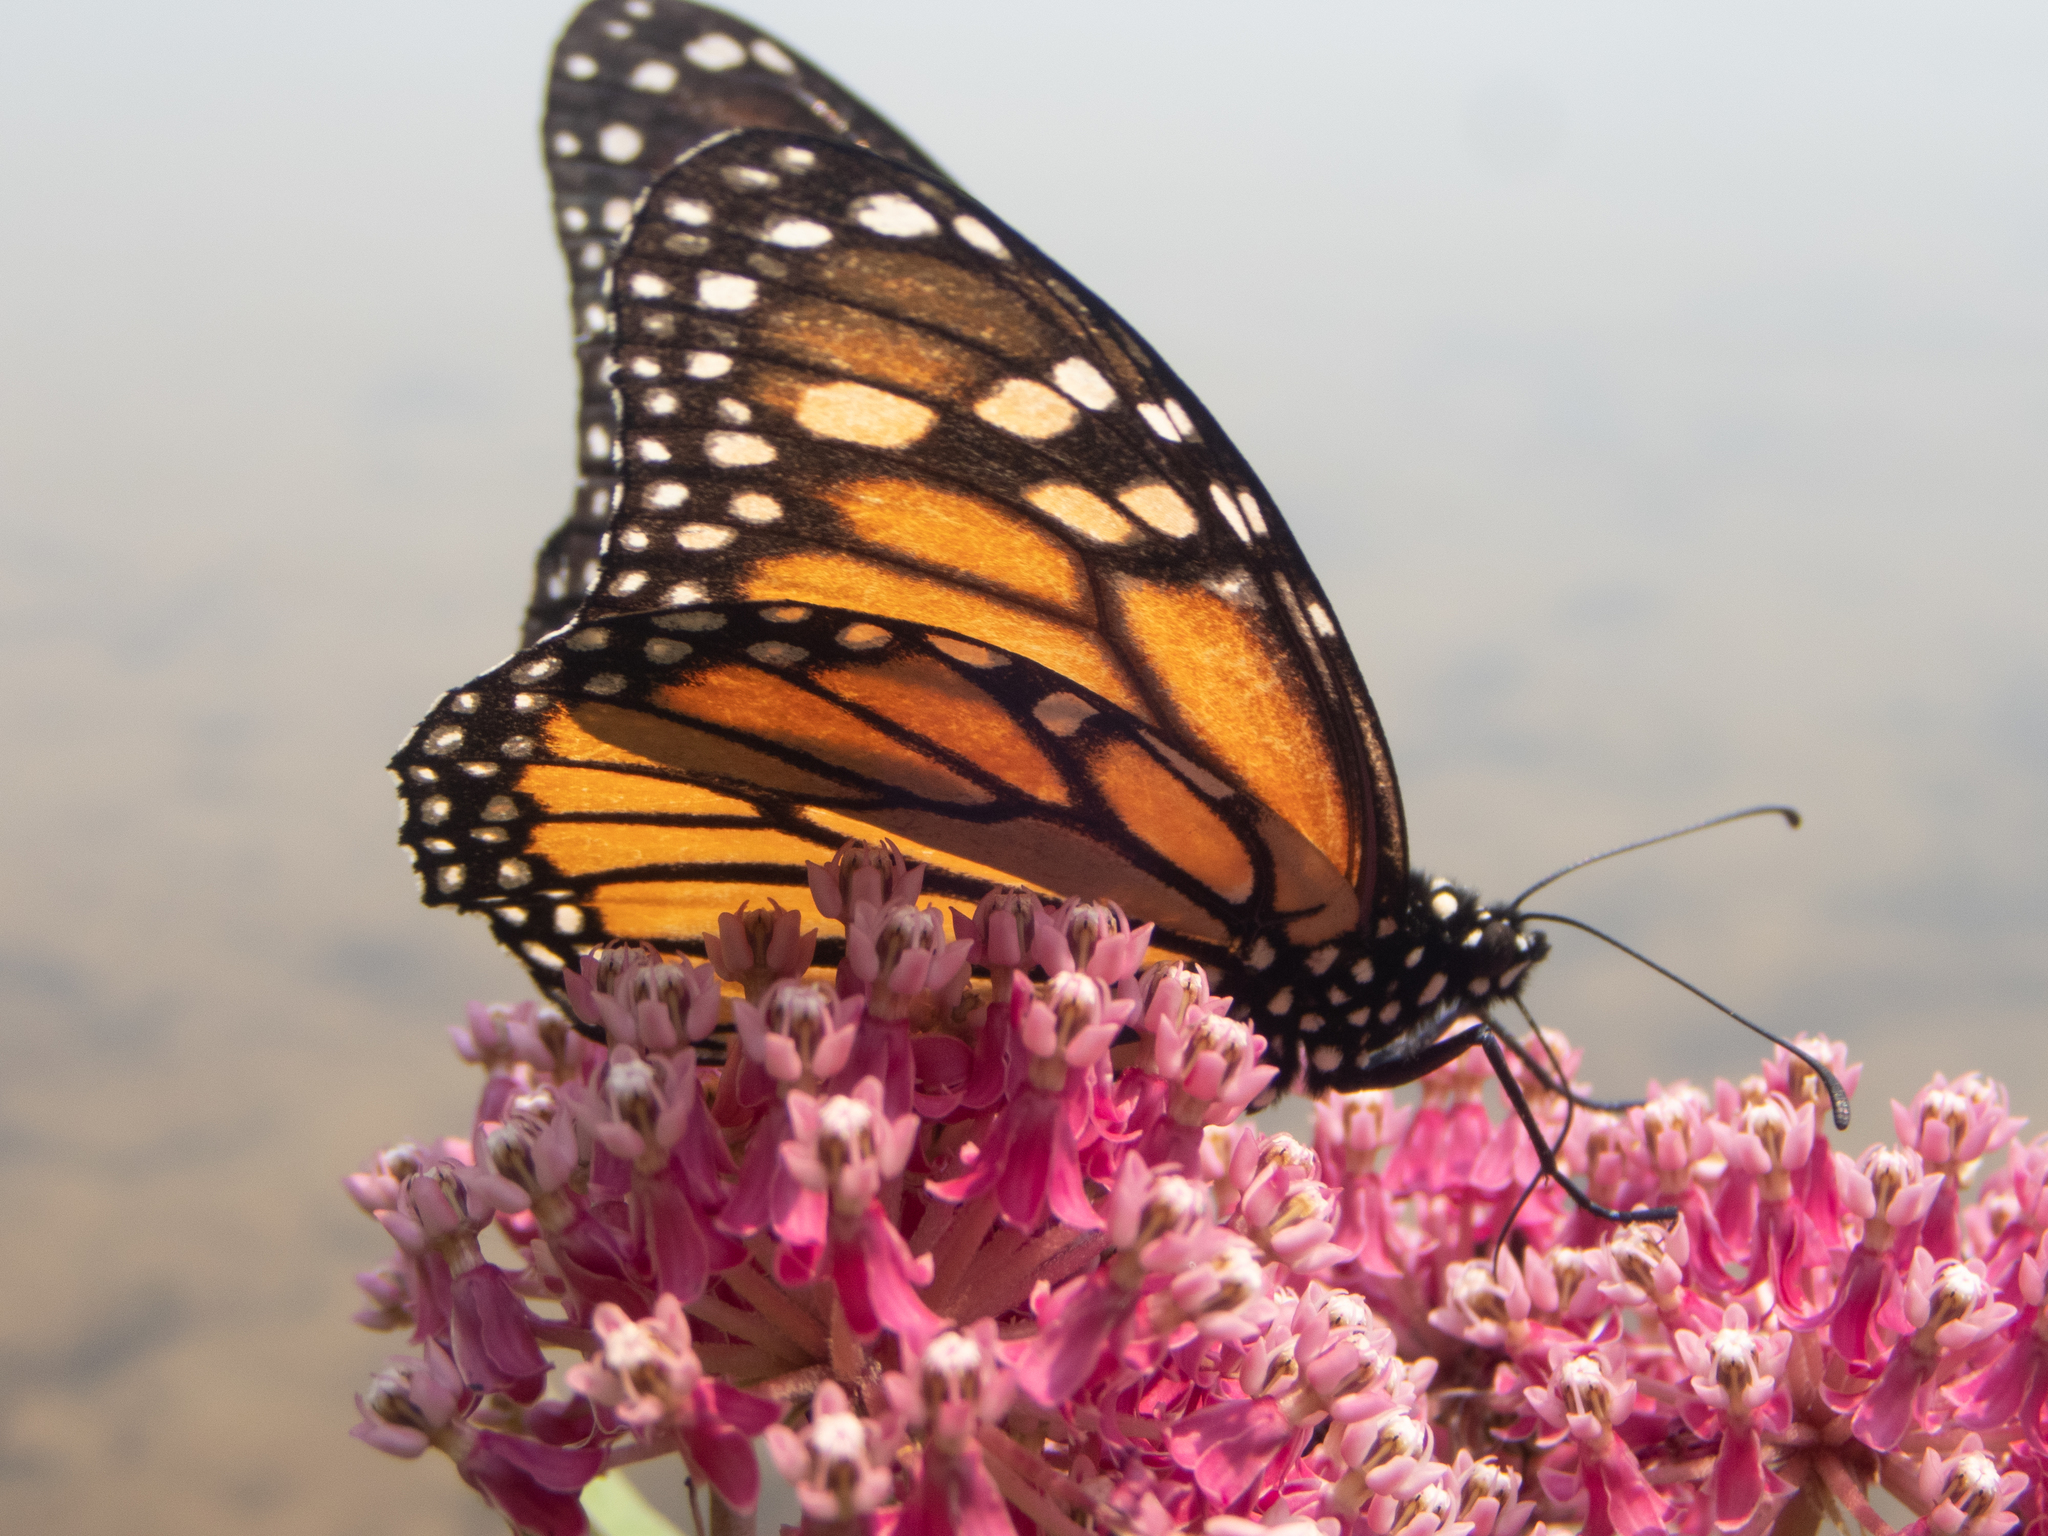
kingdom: Animalia
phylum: Arthropoda
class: Insecta
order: Lepidoptera
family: Nymphalidae
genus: Danaus
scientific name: Danaus plexippus
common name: Monarch
